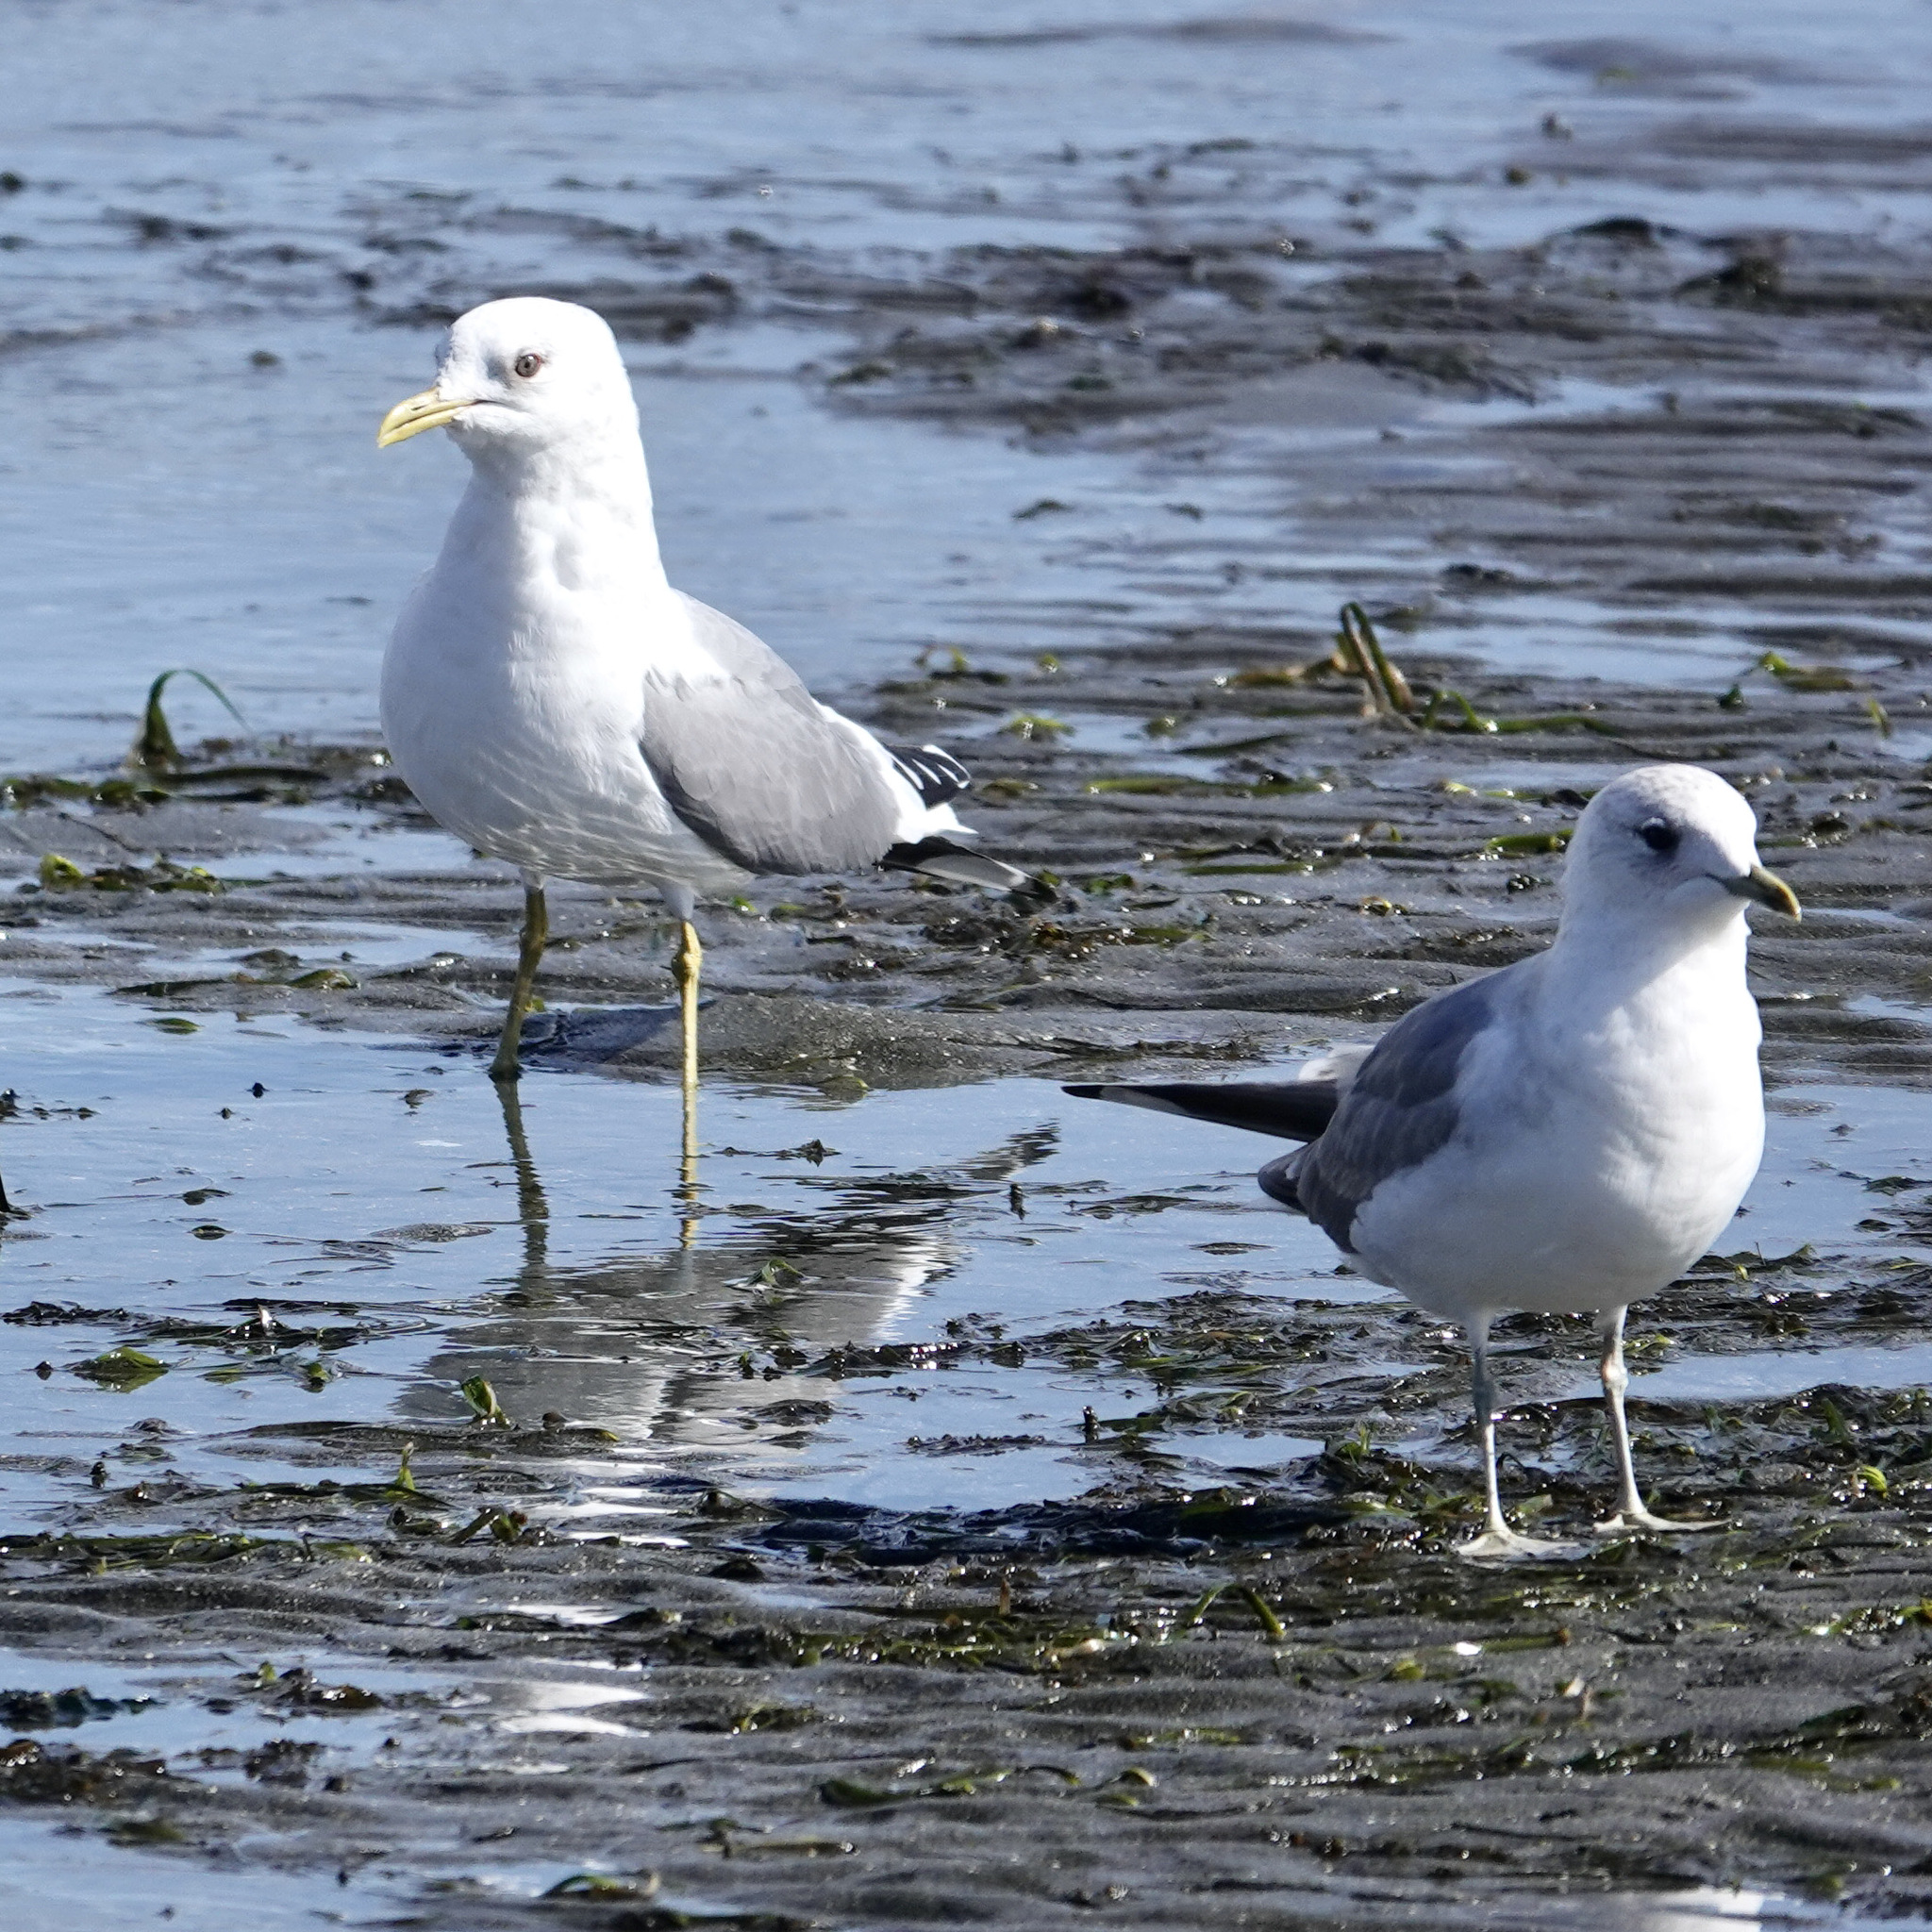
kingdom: Animalia
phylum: Chordata
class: Aves
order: Charadriiformes
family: Laridae
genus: Larus
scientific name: Larus brachyrhynchus
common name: Short-billed gull
